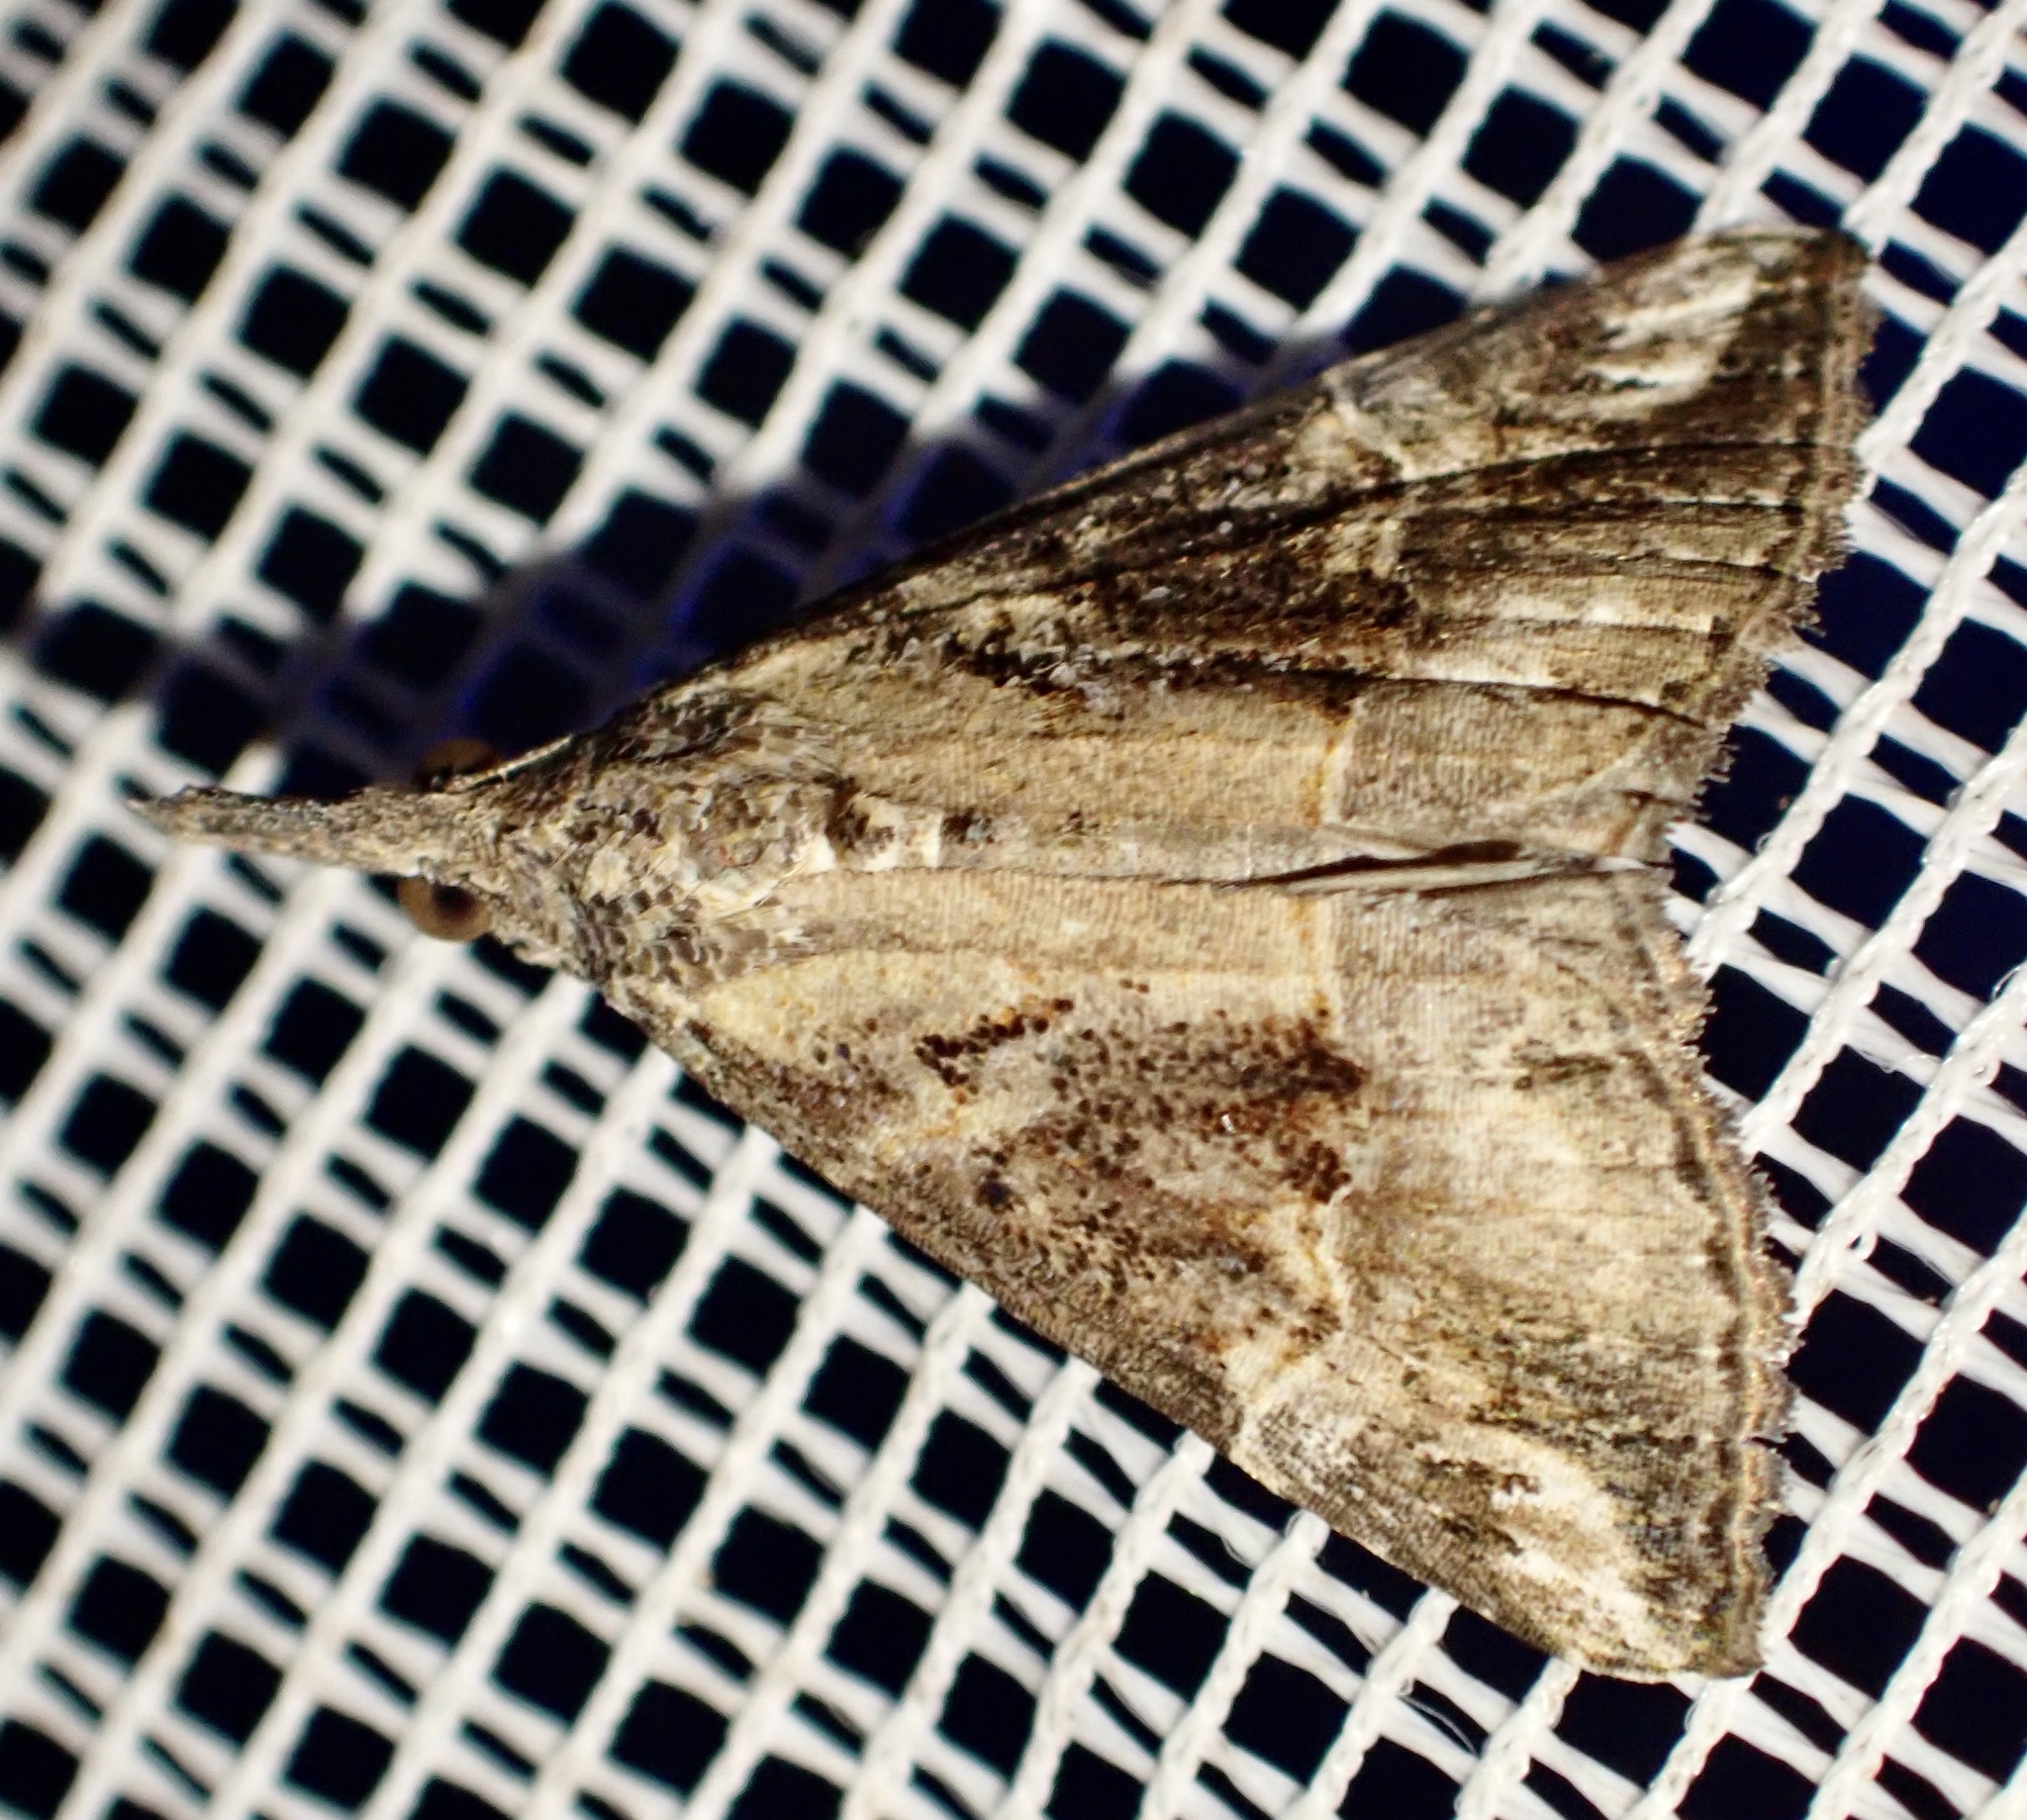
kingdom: Animalia
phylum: Arthropoda
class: Insecta
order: Lepidoptera
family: Erebidae
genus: Hypena
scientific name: Hypena commixtalis
